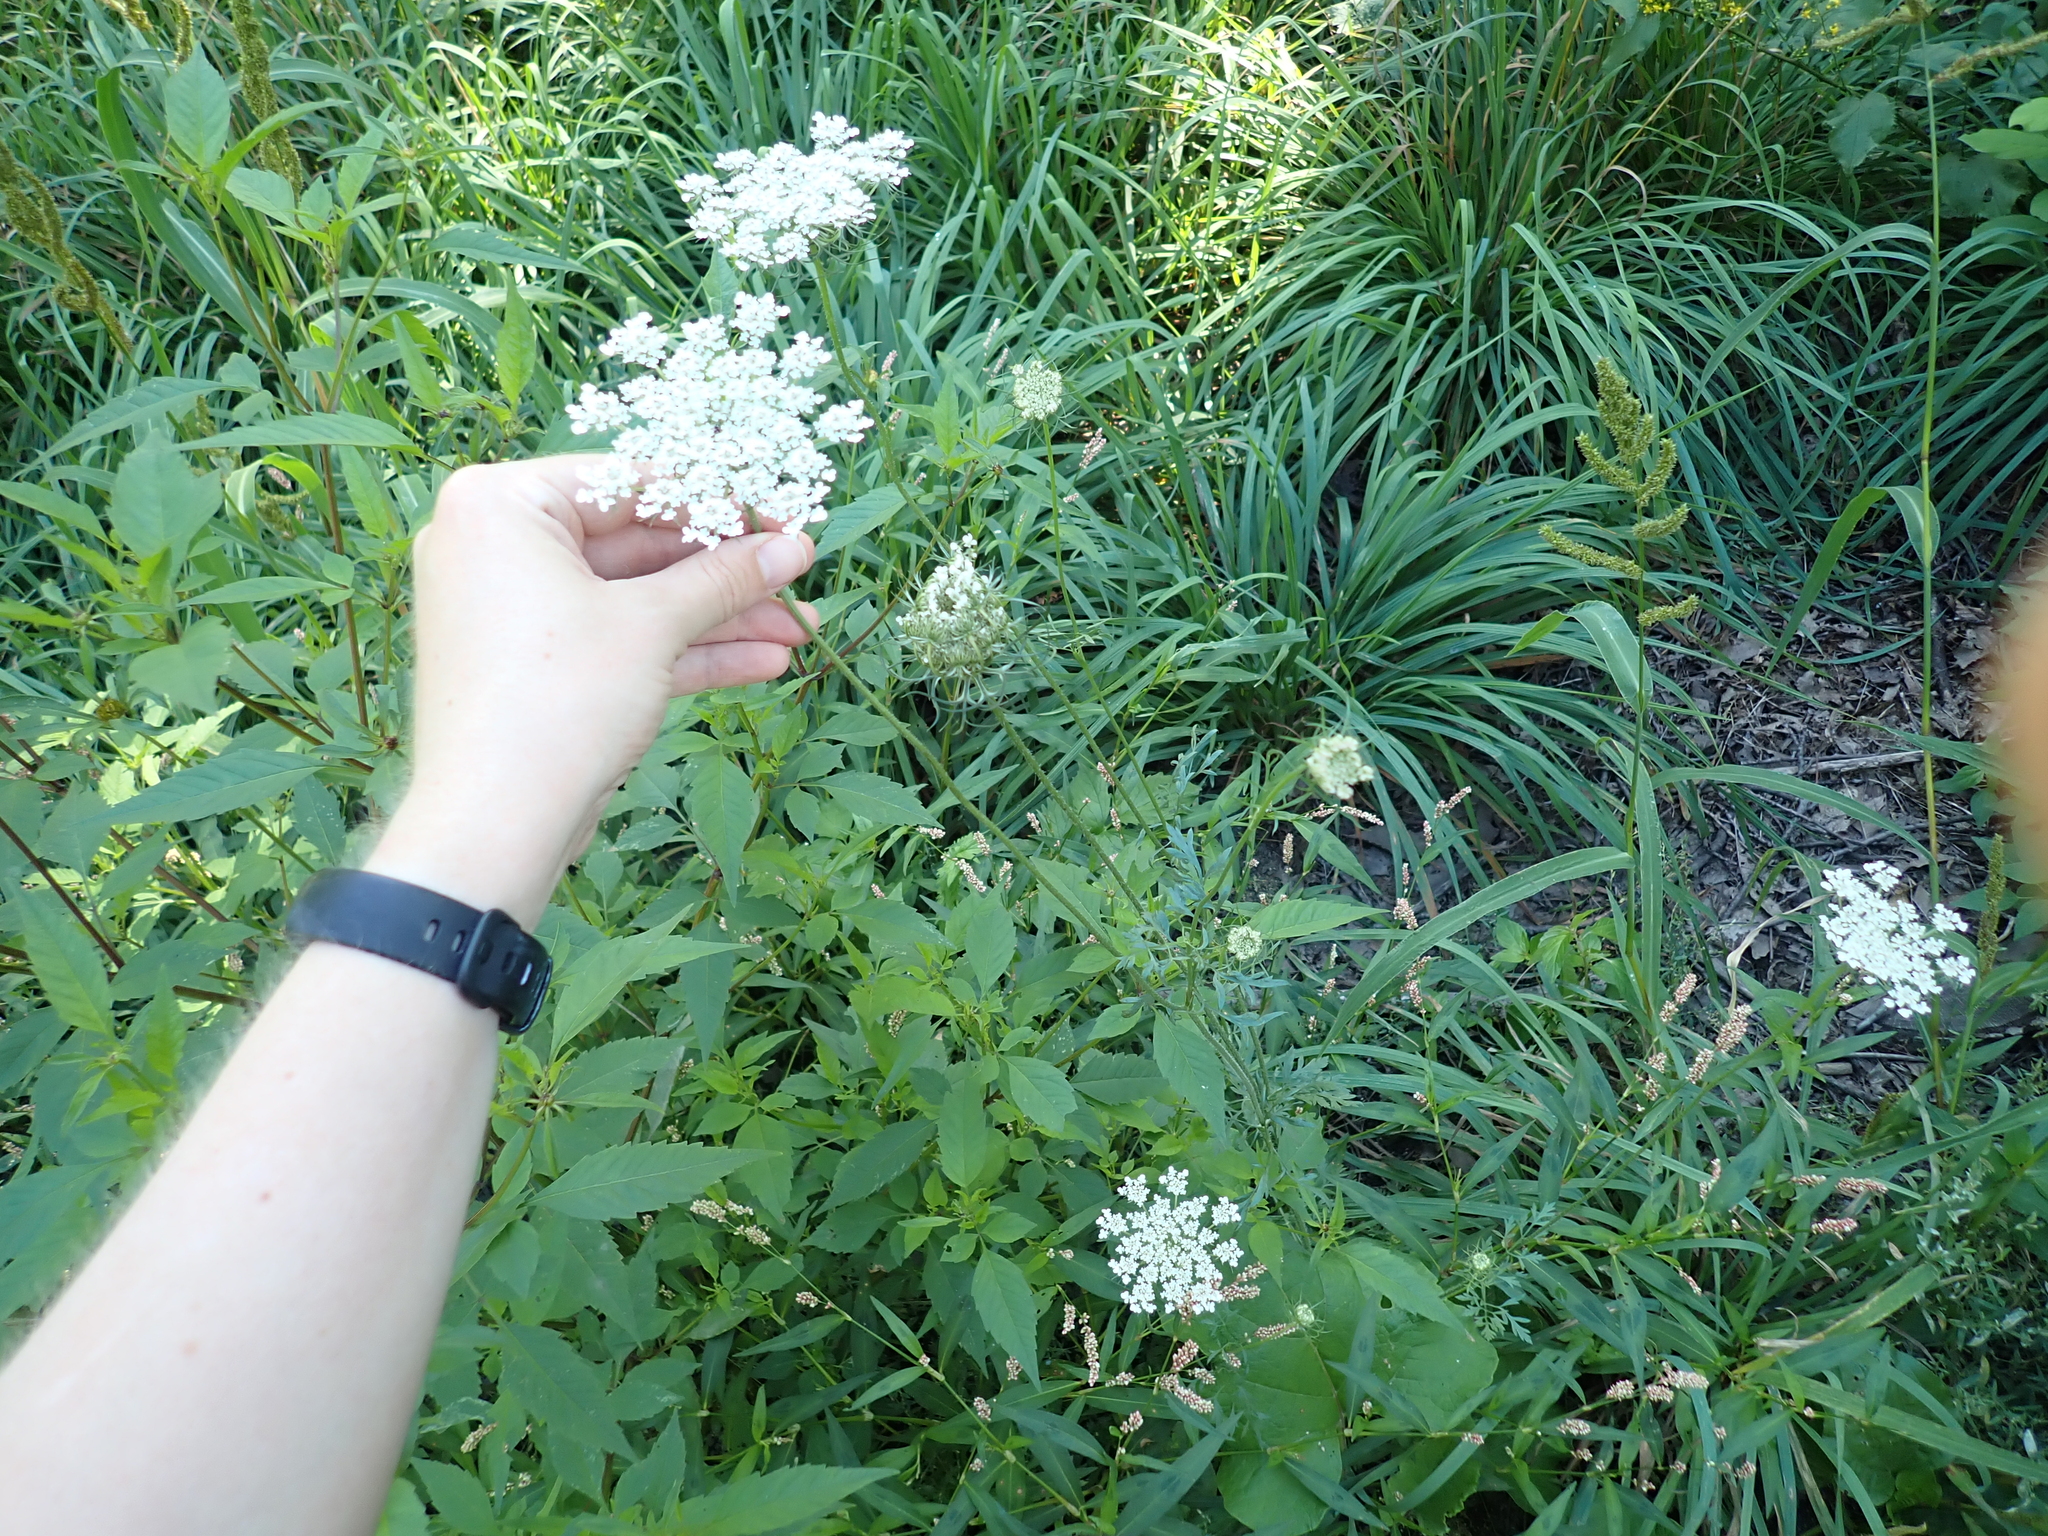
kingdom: Plantae
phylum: Tracheophyta
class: Magnoliopsida
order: Apiales
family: Apiaceae
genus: Daucus
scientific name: Daucus carota
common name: Wild carrot
